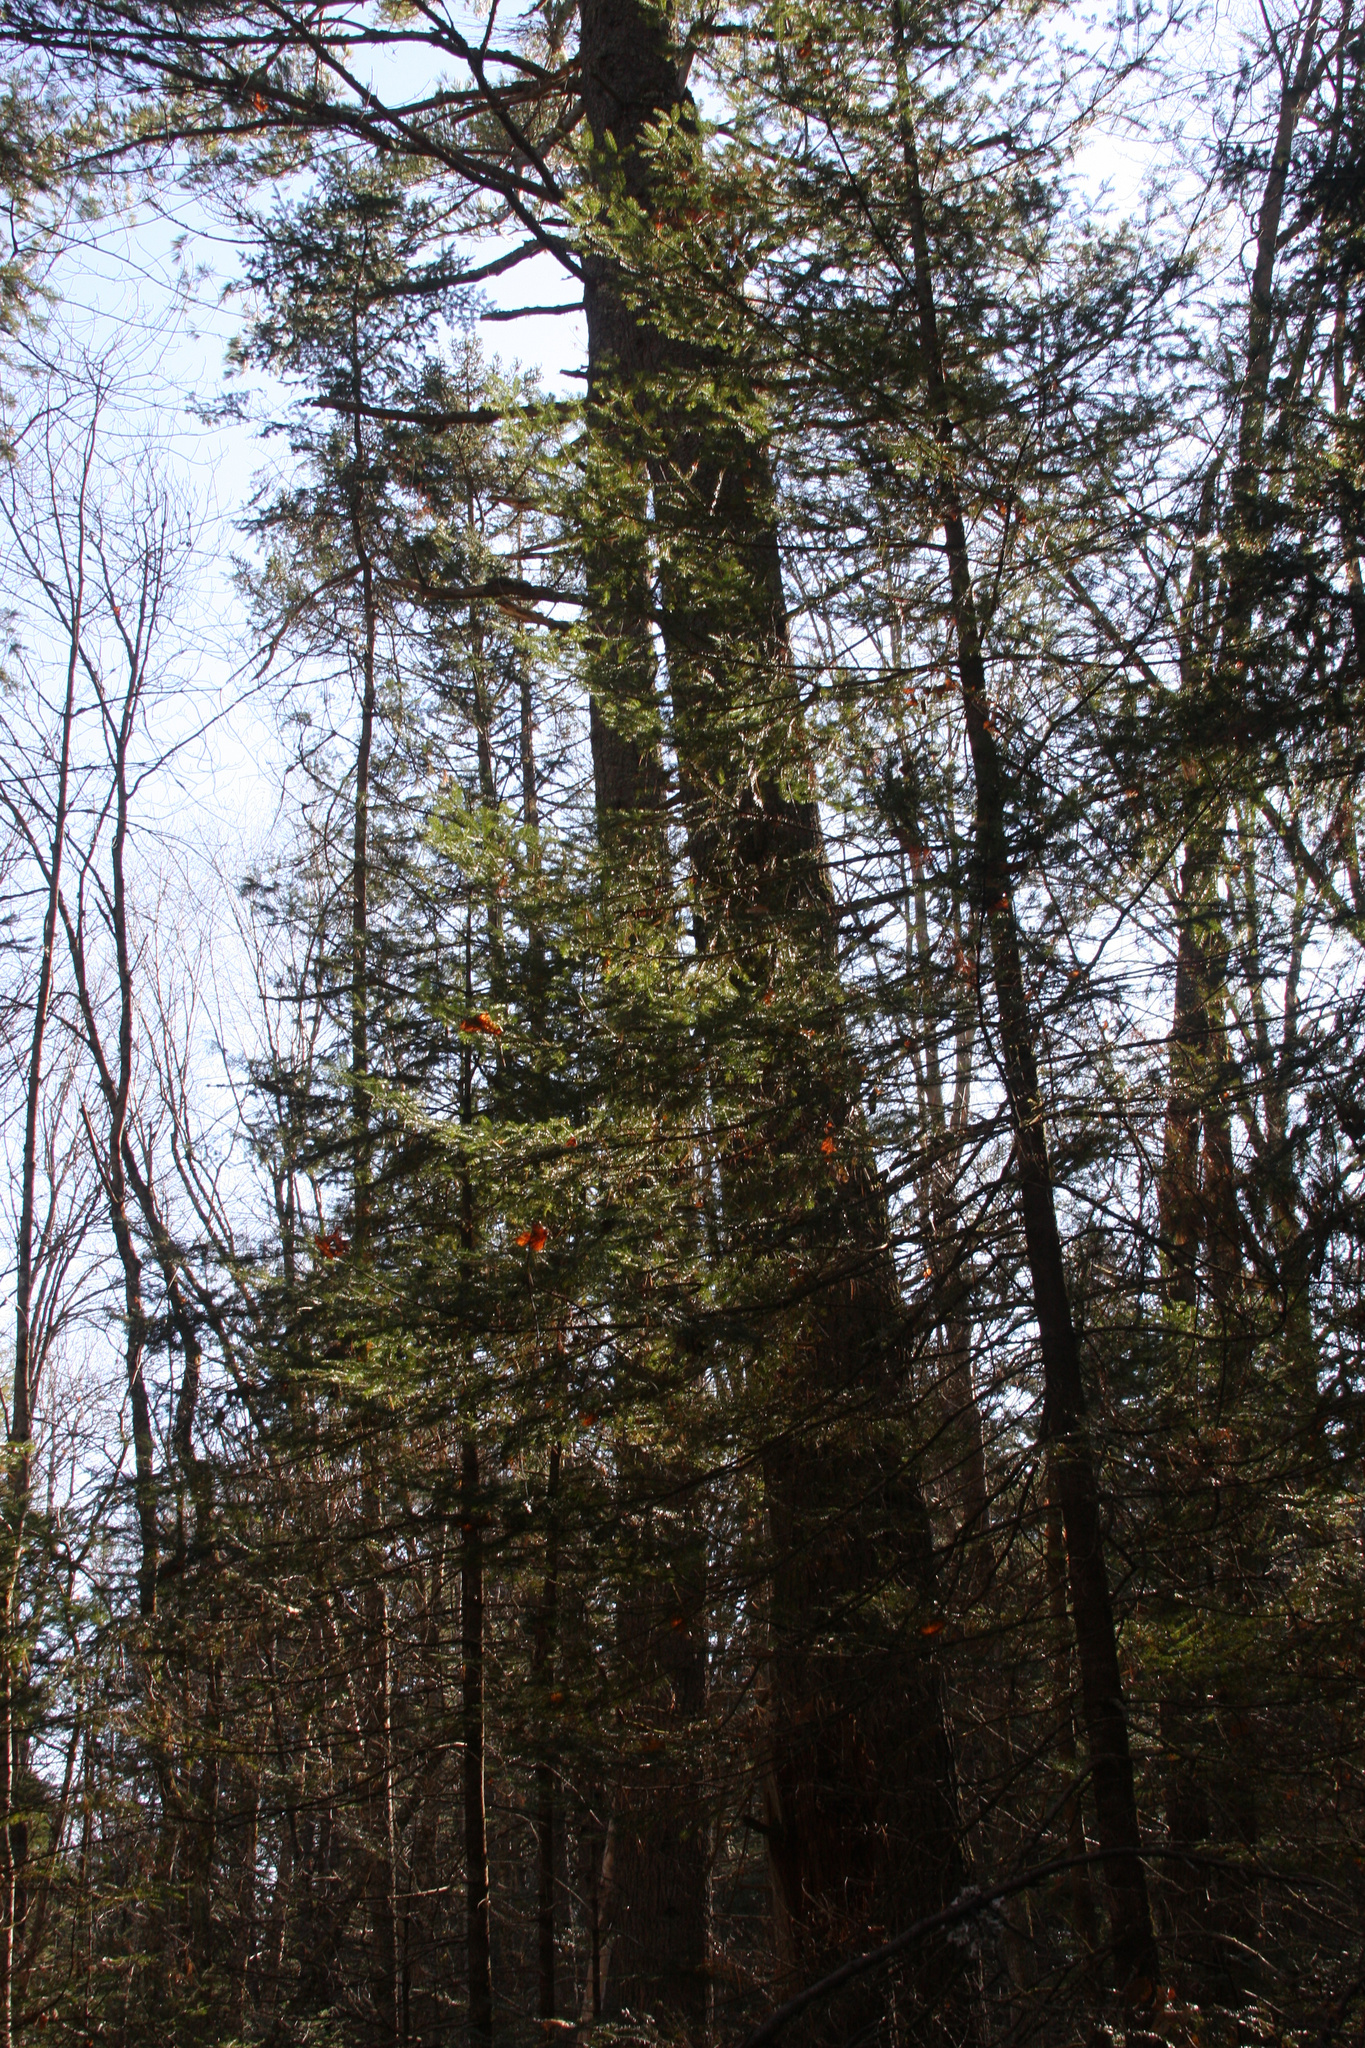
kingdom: Plantae
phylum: Tracheophyta
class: Pinopsida
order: Pinales
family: Pinaceae
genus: Pinus
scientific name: Pinus strobus
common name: Weymouth pine
